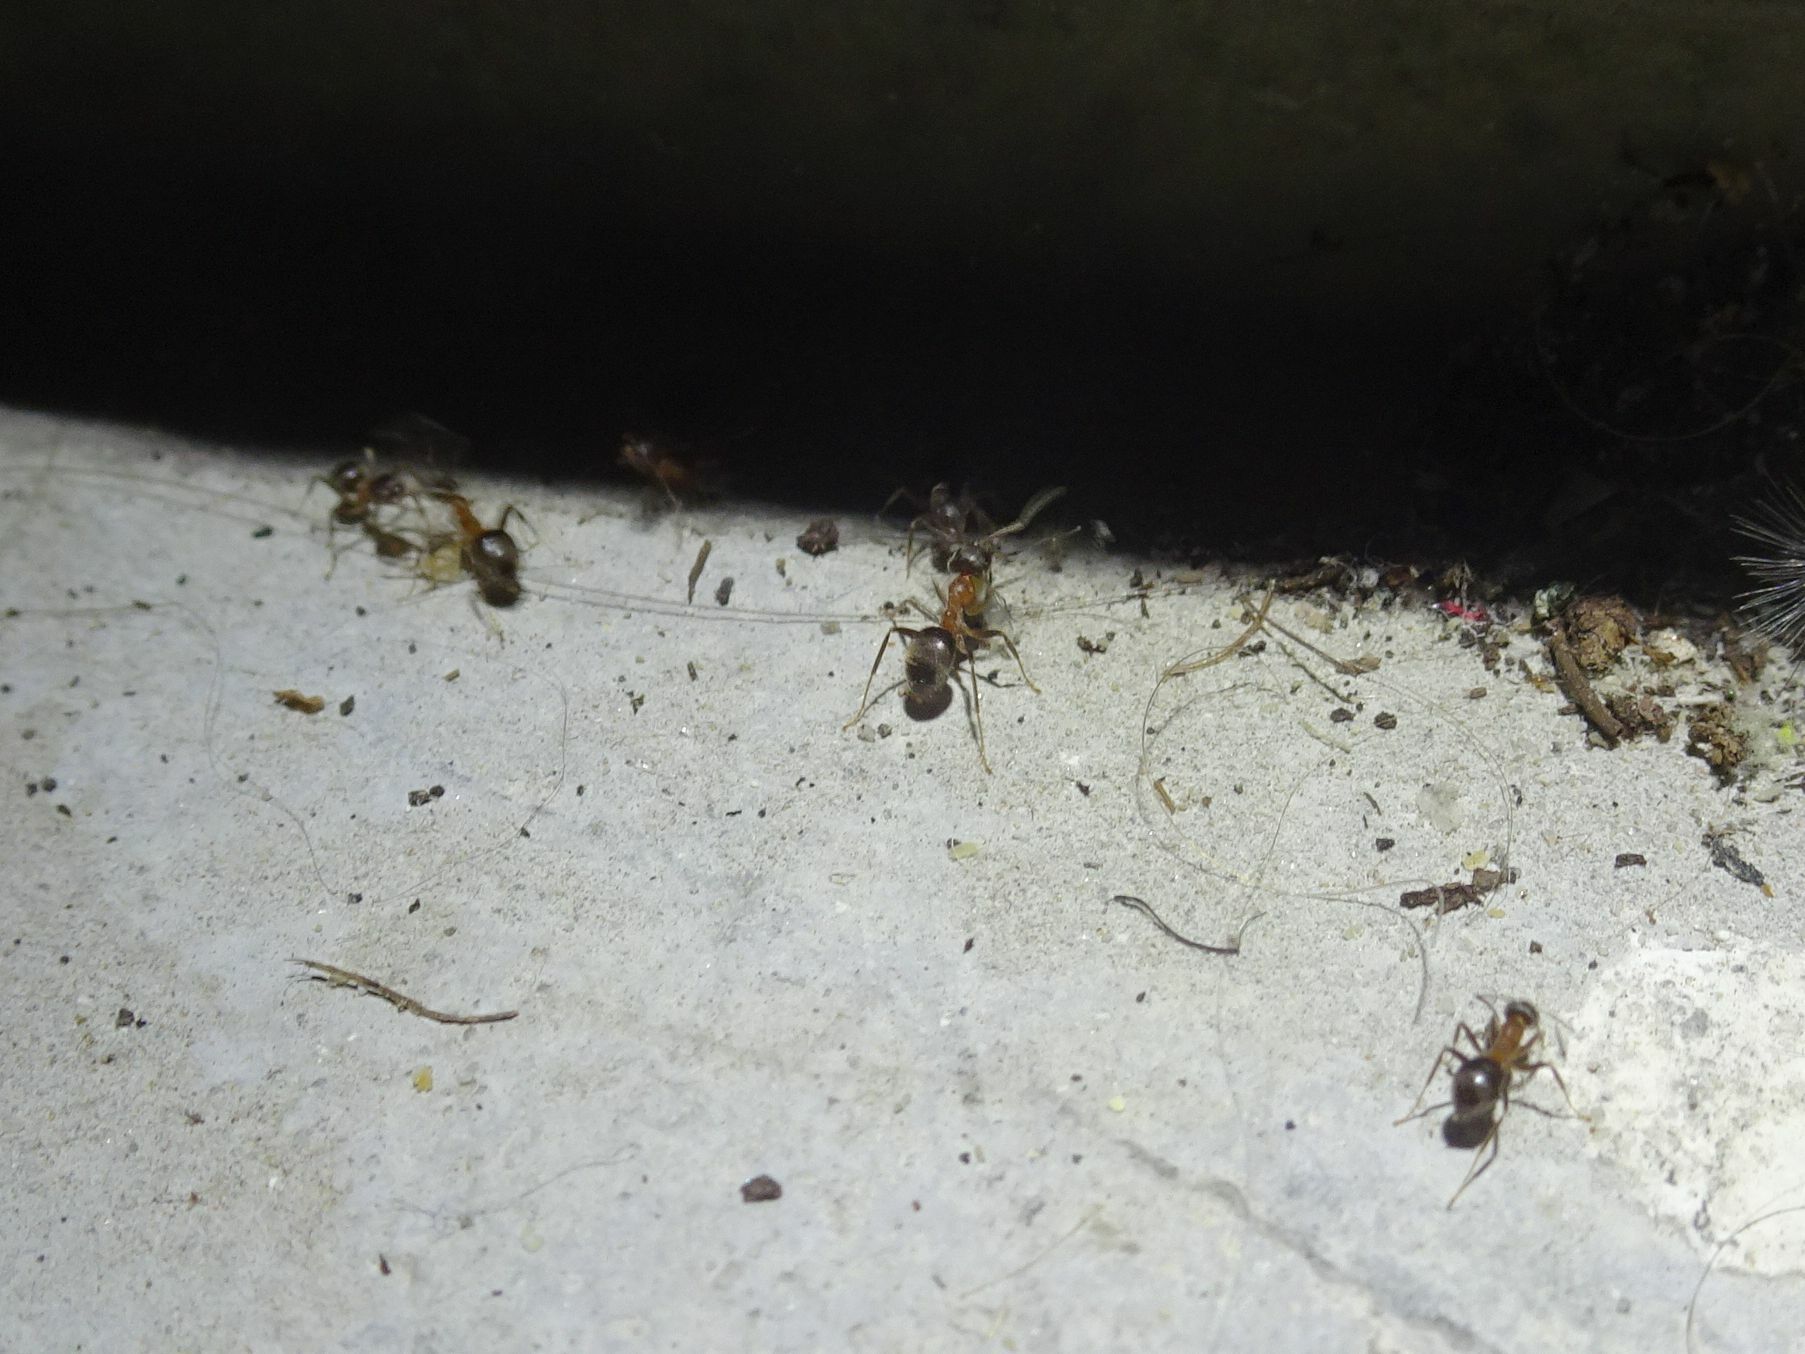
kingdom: Animalia
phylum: Arthropoda
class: Insecta
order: Hymenoptera
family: Formicidae
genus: Lasius
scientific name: Lasius emarginatus
